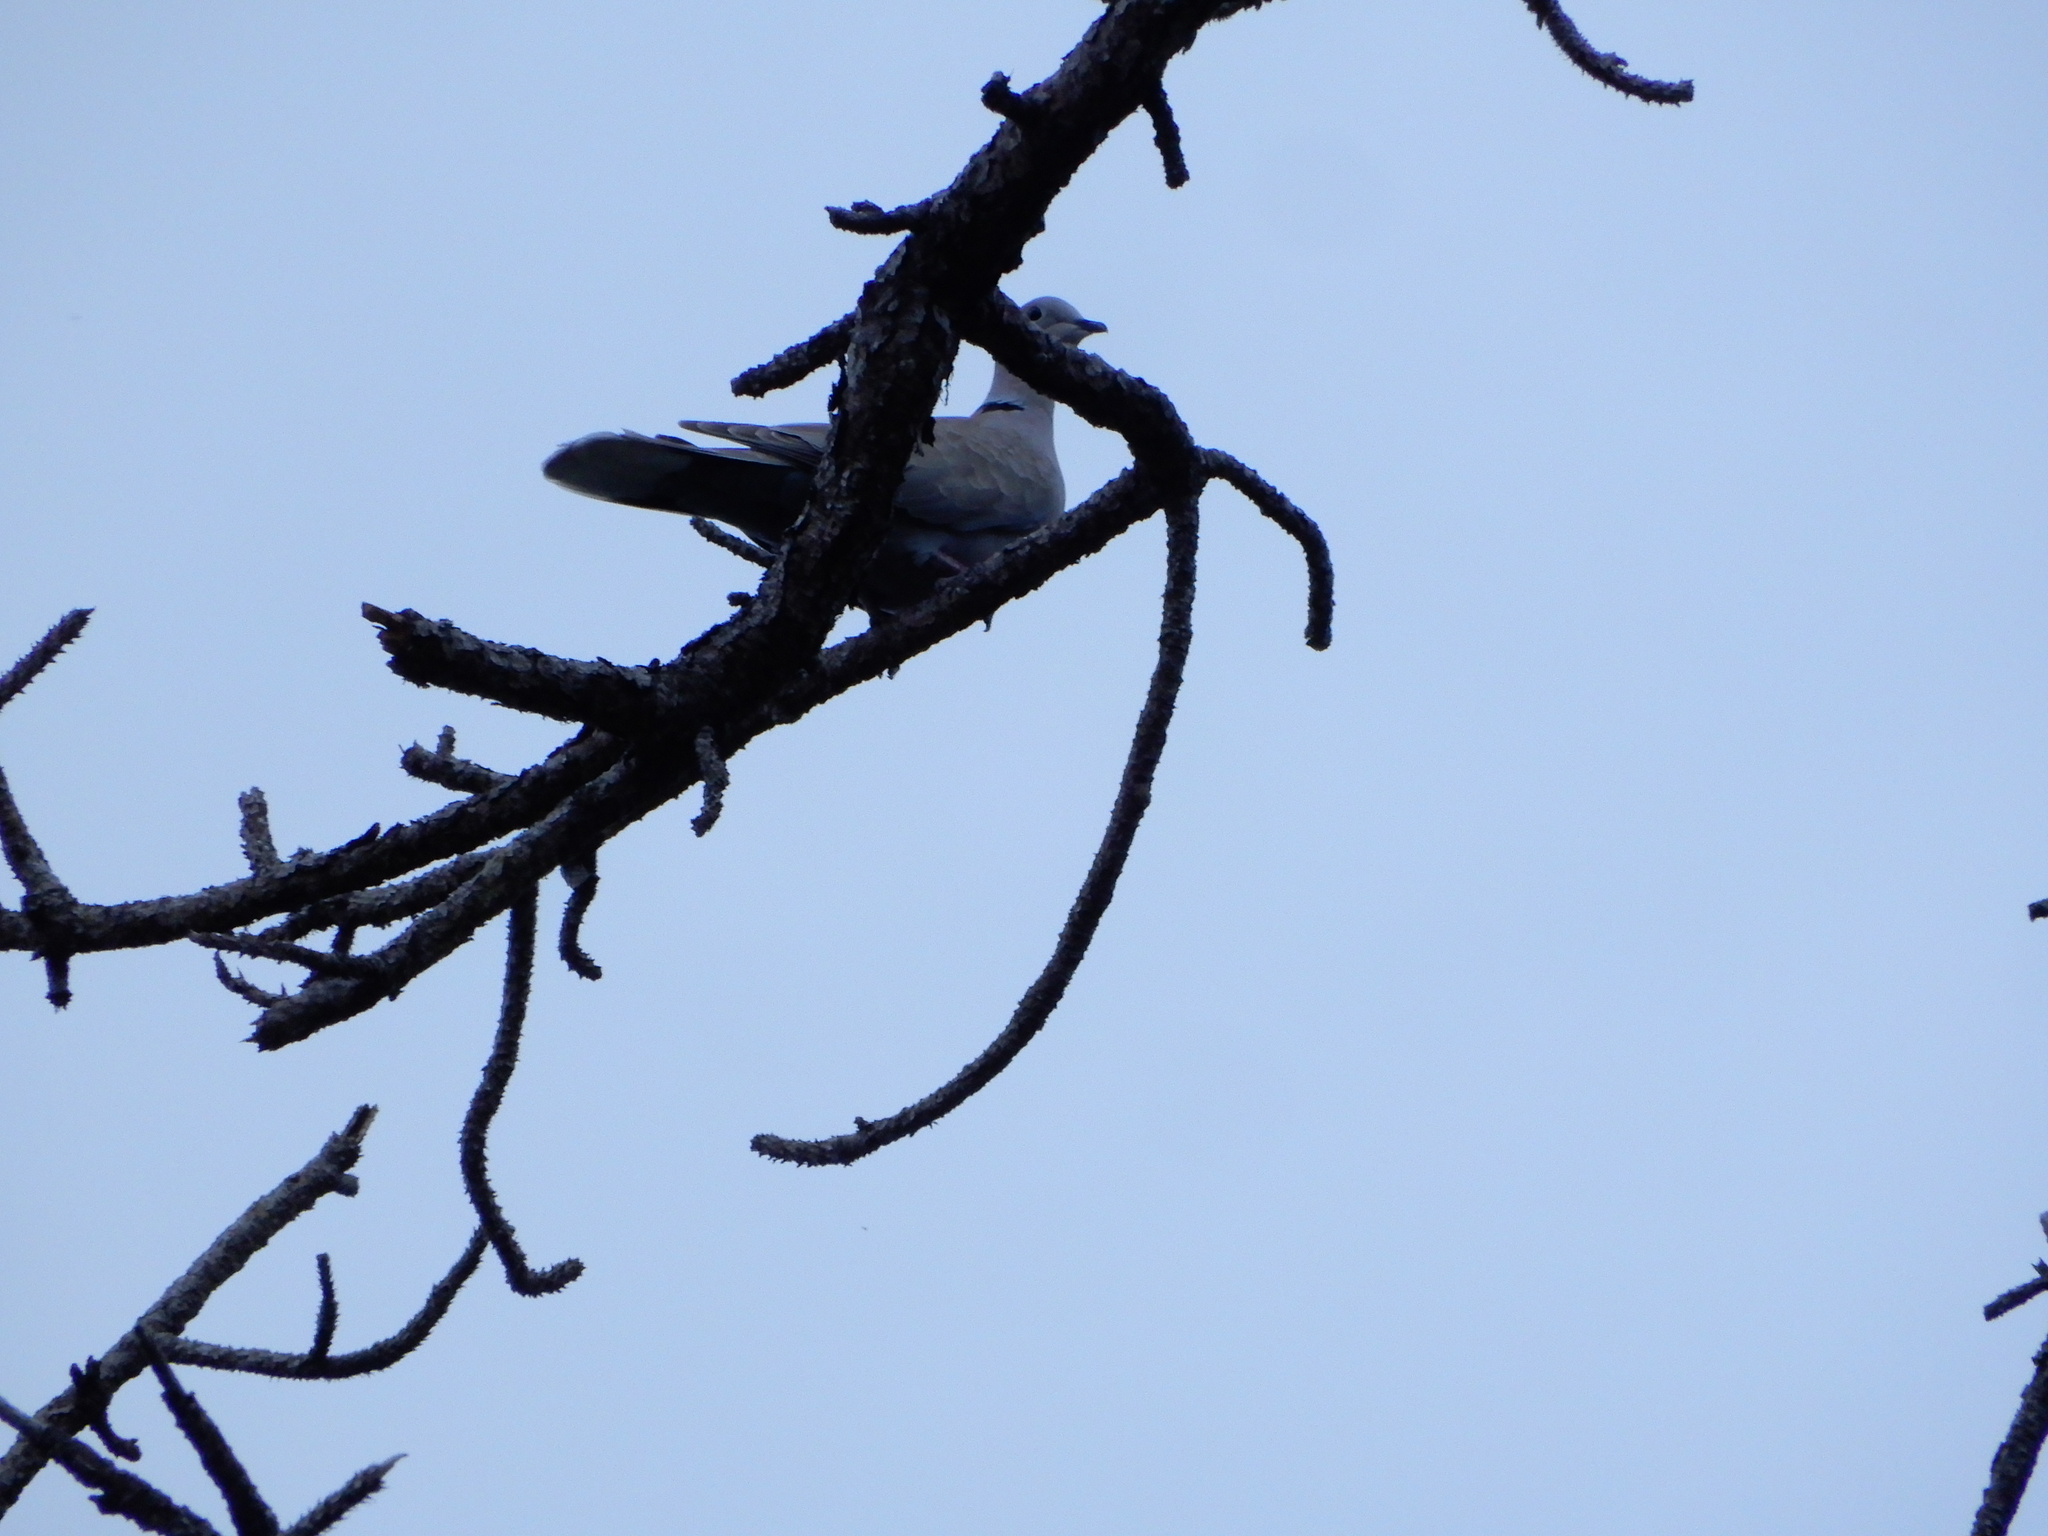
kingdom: Animalia
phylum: Chordata
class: Aves
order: Columbiformes
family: Columbidae
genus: Streptopelia
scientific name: Streptopelia decaocto
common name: Eurasian collared dove
